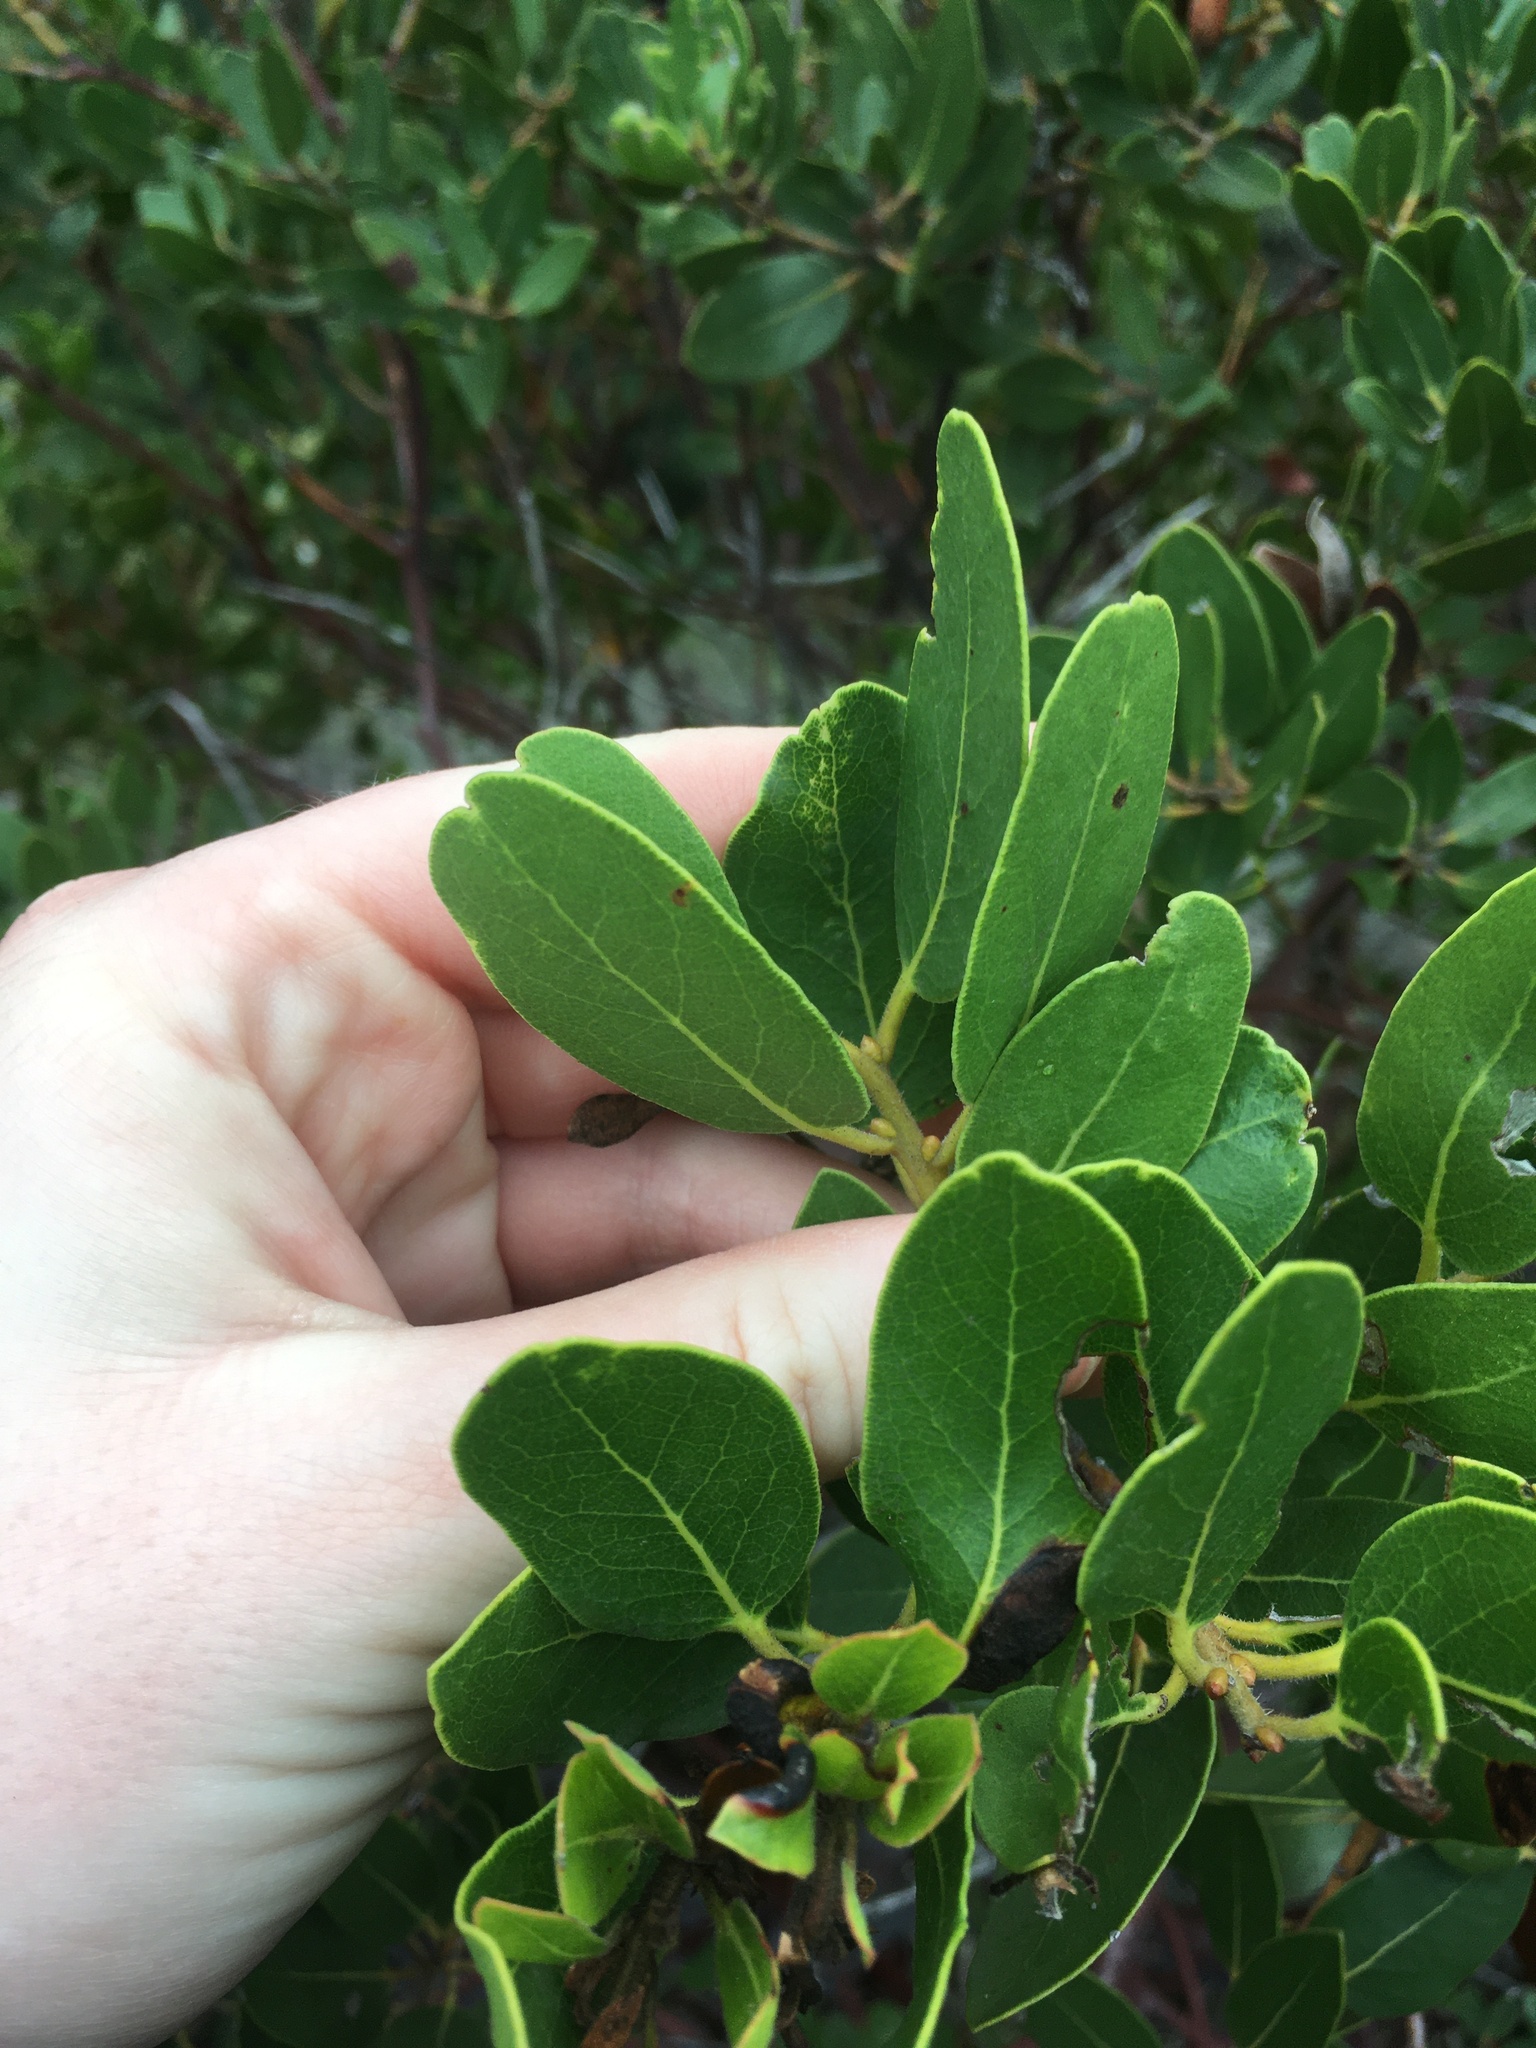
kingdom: Plantae
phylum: Tracheophyta
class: Magnoliopsida
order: Ericales
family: Ericaceae
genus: Arctostaphylos
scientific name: Arctostaphylos insularis
